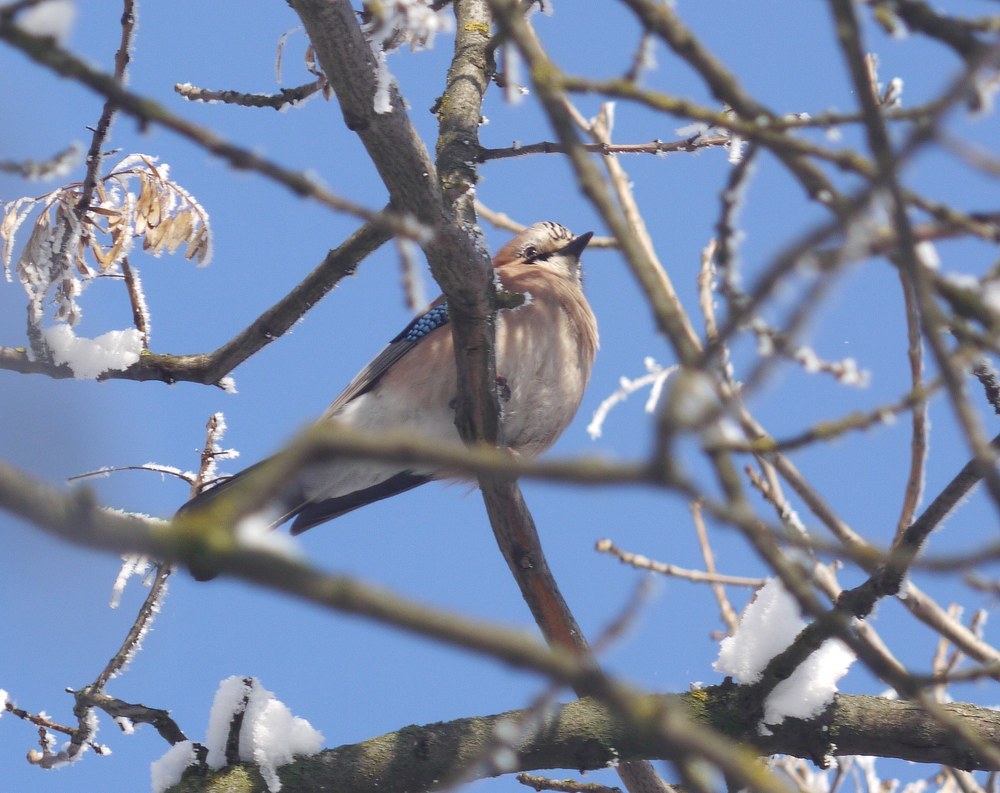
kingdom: Animalia
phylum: Chordata
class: Aves
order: Passeriformes
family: Corvidae
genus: Garrulus
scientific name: Garrulus glandarius
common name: Eurasian jay
